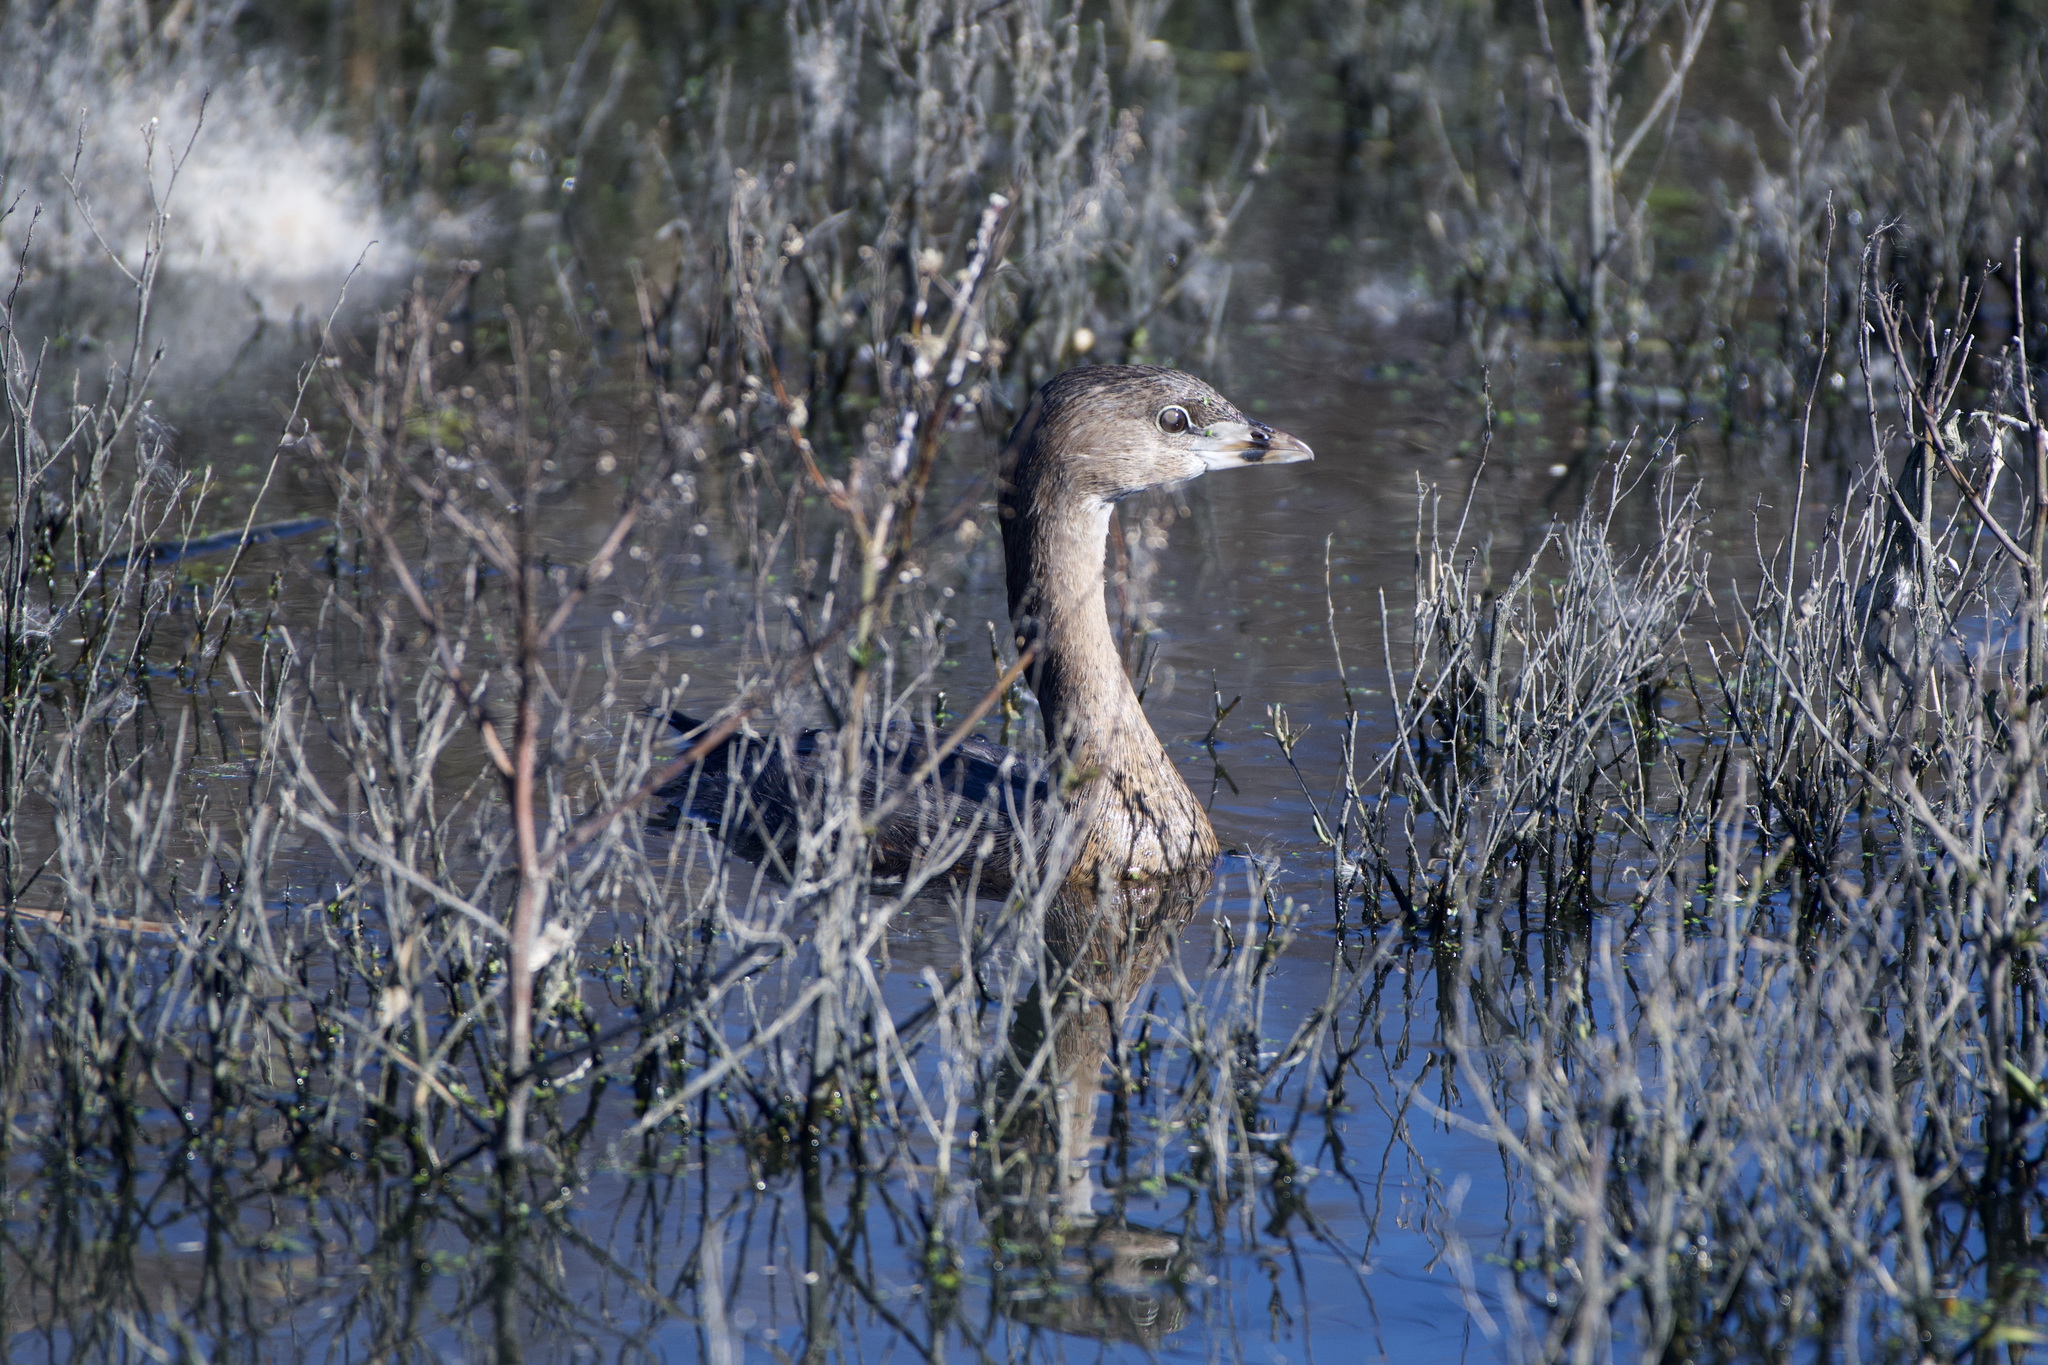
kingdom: Animalia
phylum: Chordata
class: Aves
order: Podicipediformes
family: Podicipedidae
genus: Podilymbus
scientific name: Podilymbus podiceps
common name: Pied-billed grebe
